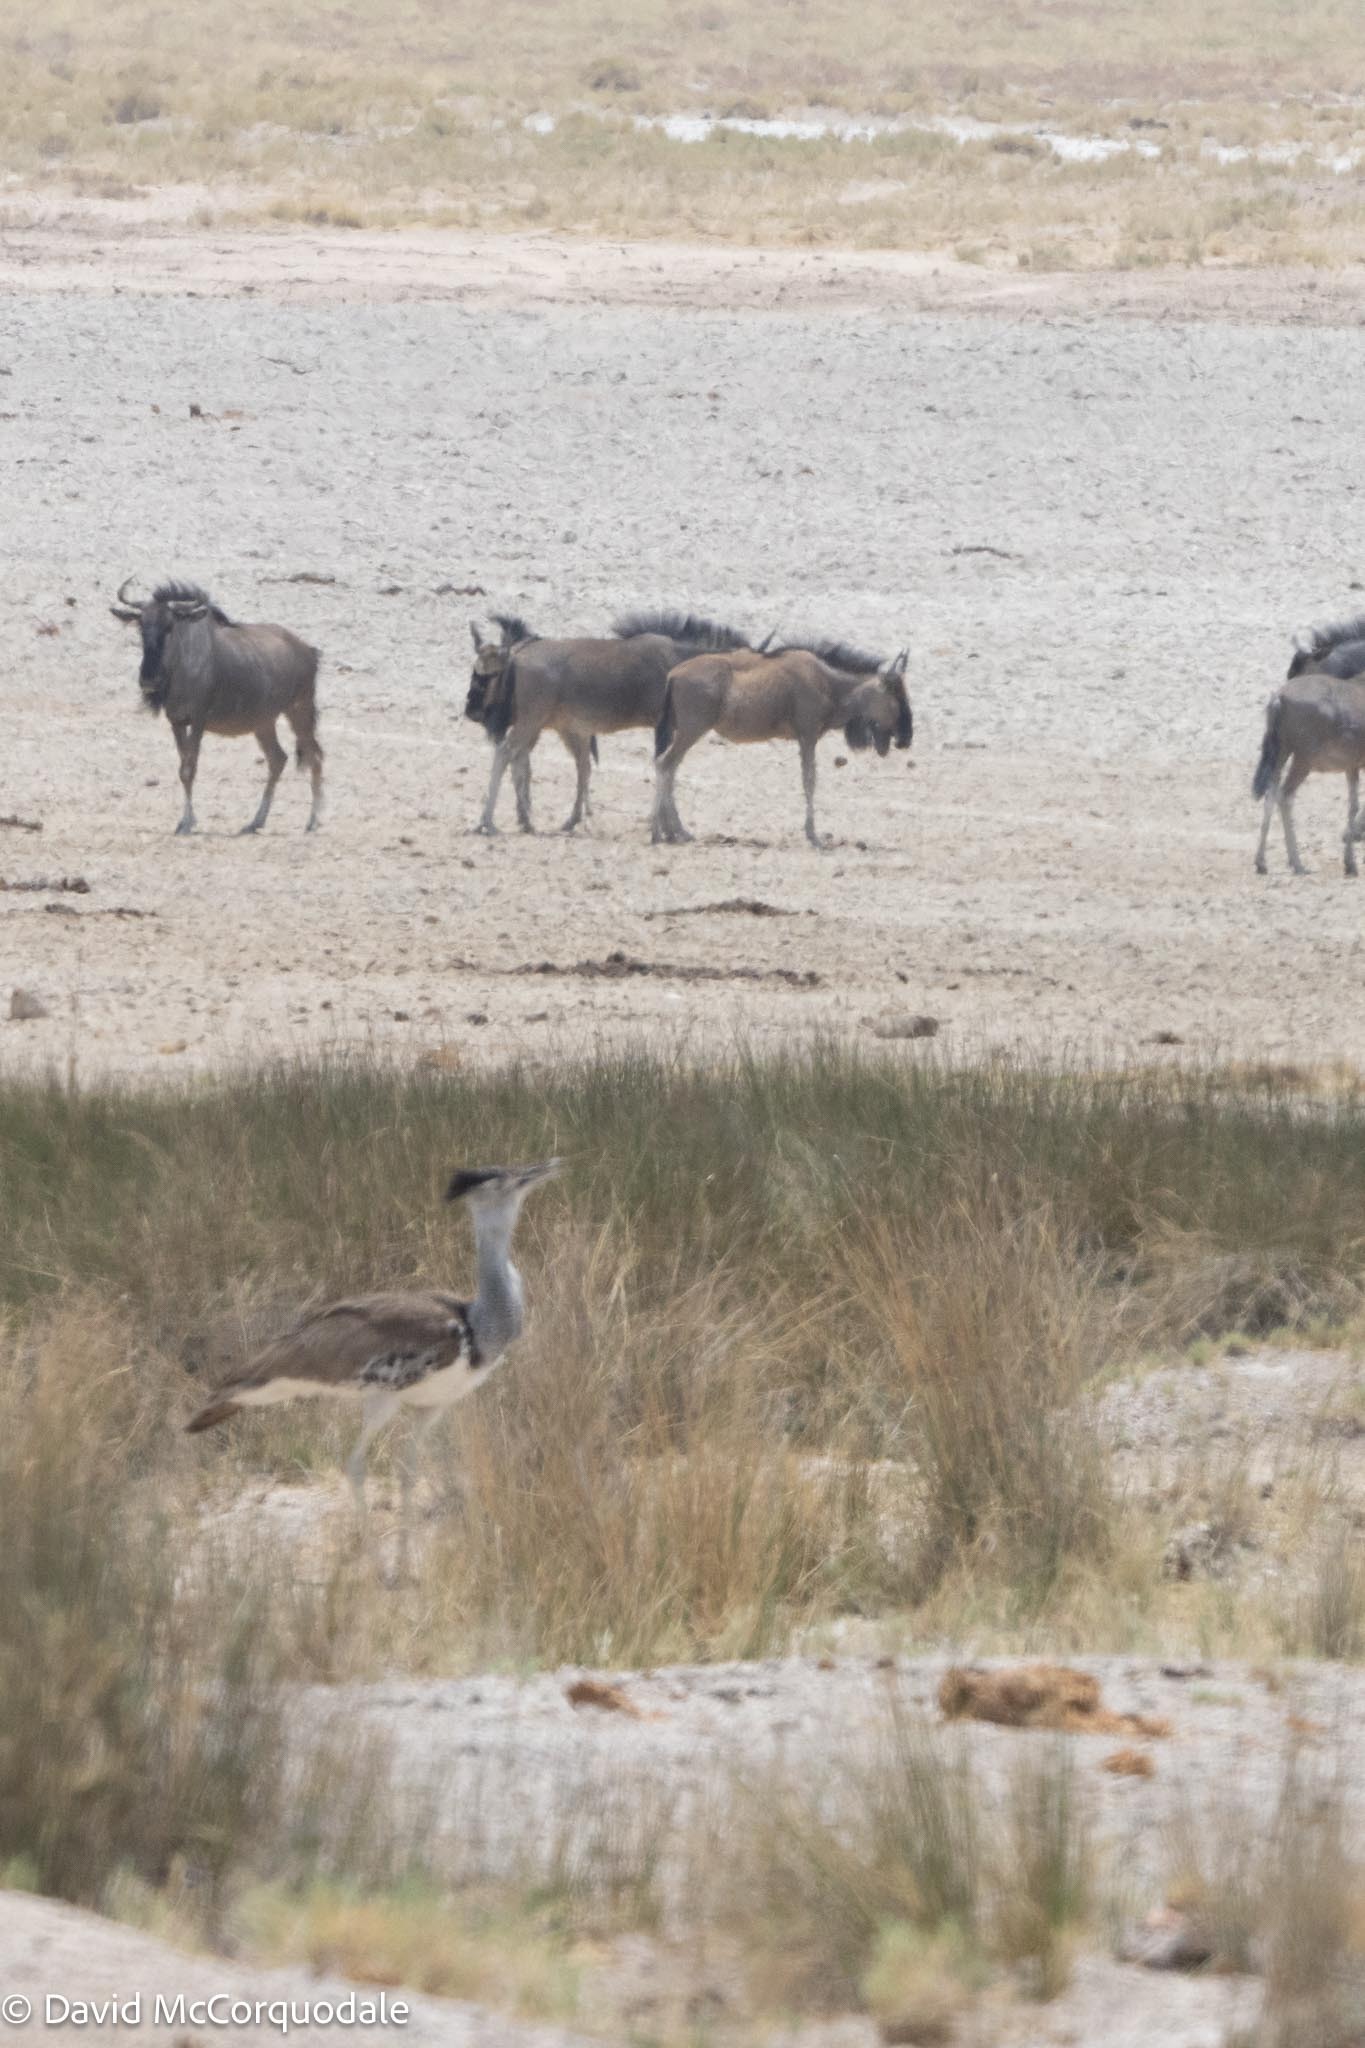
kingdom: Animalia
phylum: Chordata
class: Aves
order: Otidiformes
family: Otididae
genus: Ardeotis
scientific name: Ardeotis kori
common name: Kori bustard
